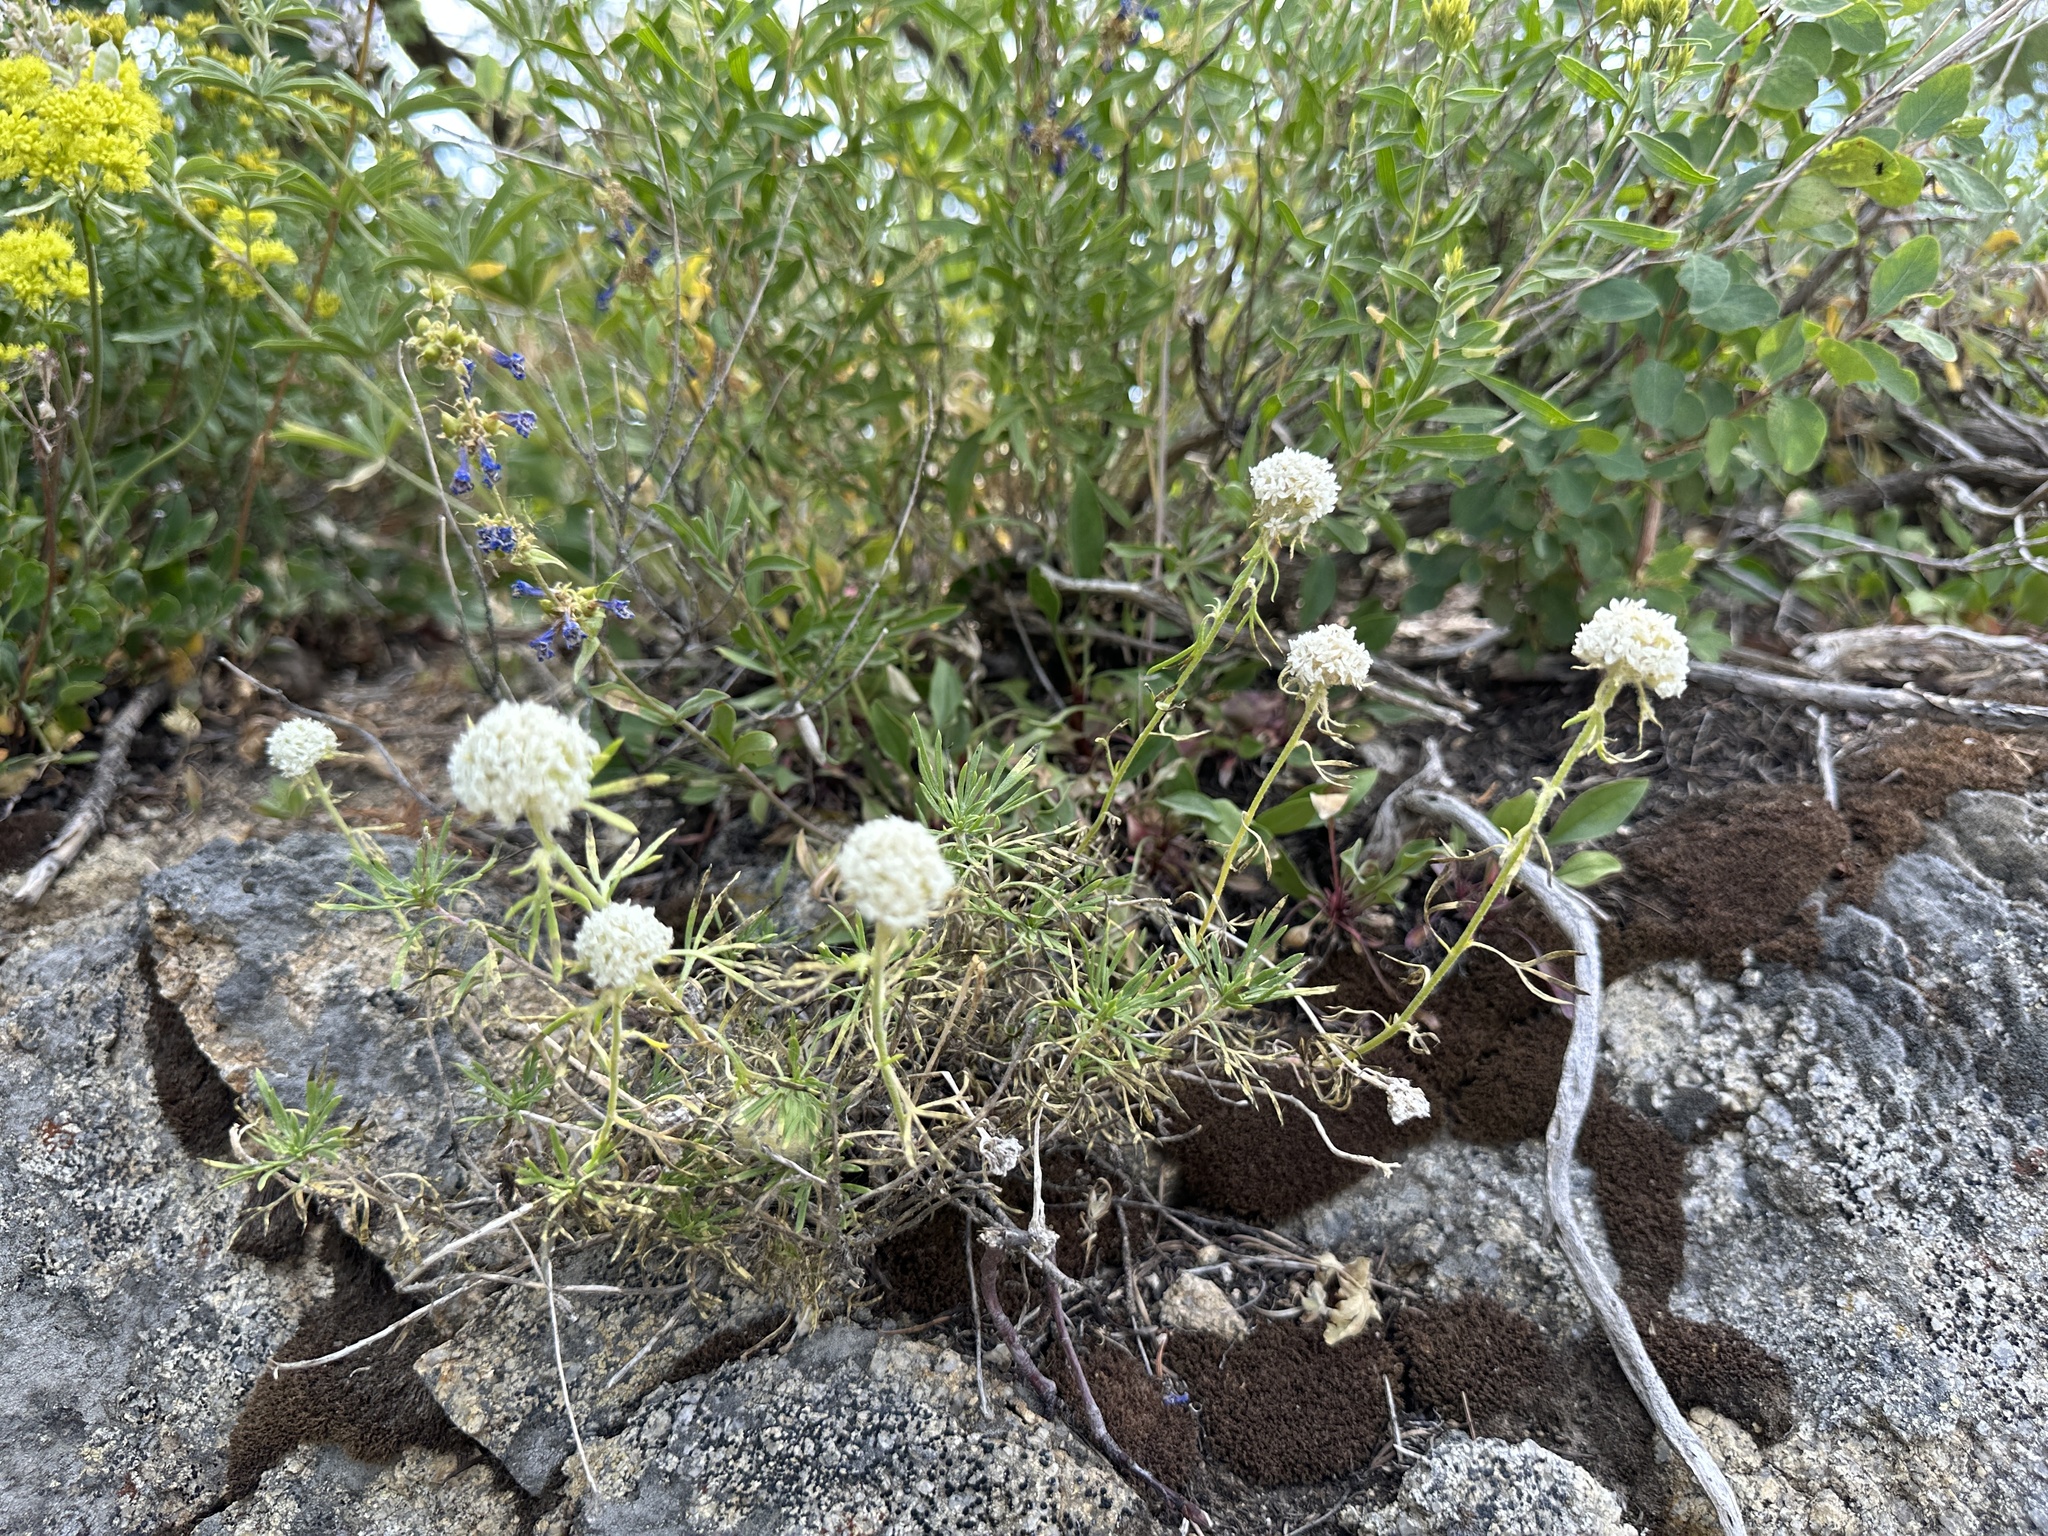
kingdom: Plantae
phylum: Tracheophyta
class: Magnoliopsida
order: Ericales
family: Polemoniaceae
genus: Ipomopsis
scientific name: Ipomopsis congesta
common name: Ball-head gilia
